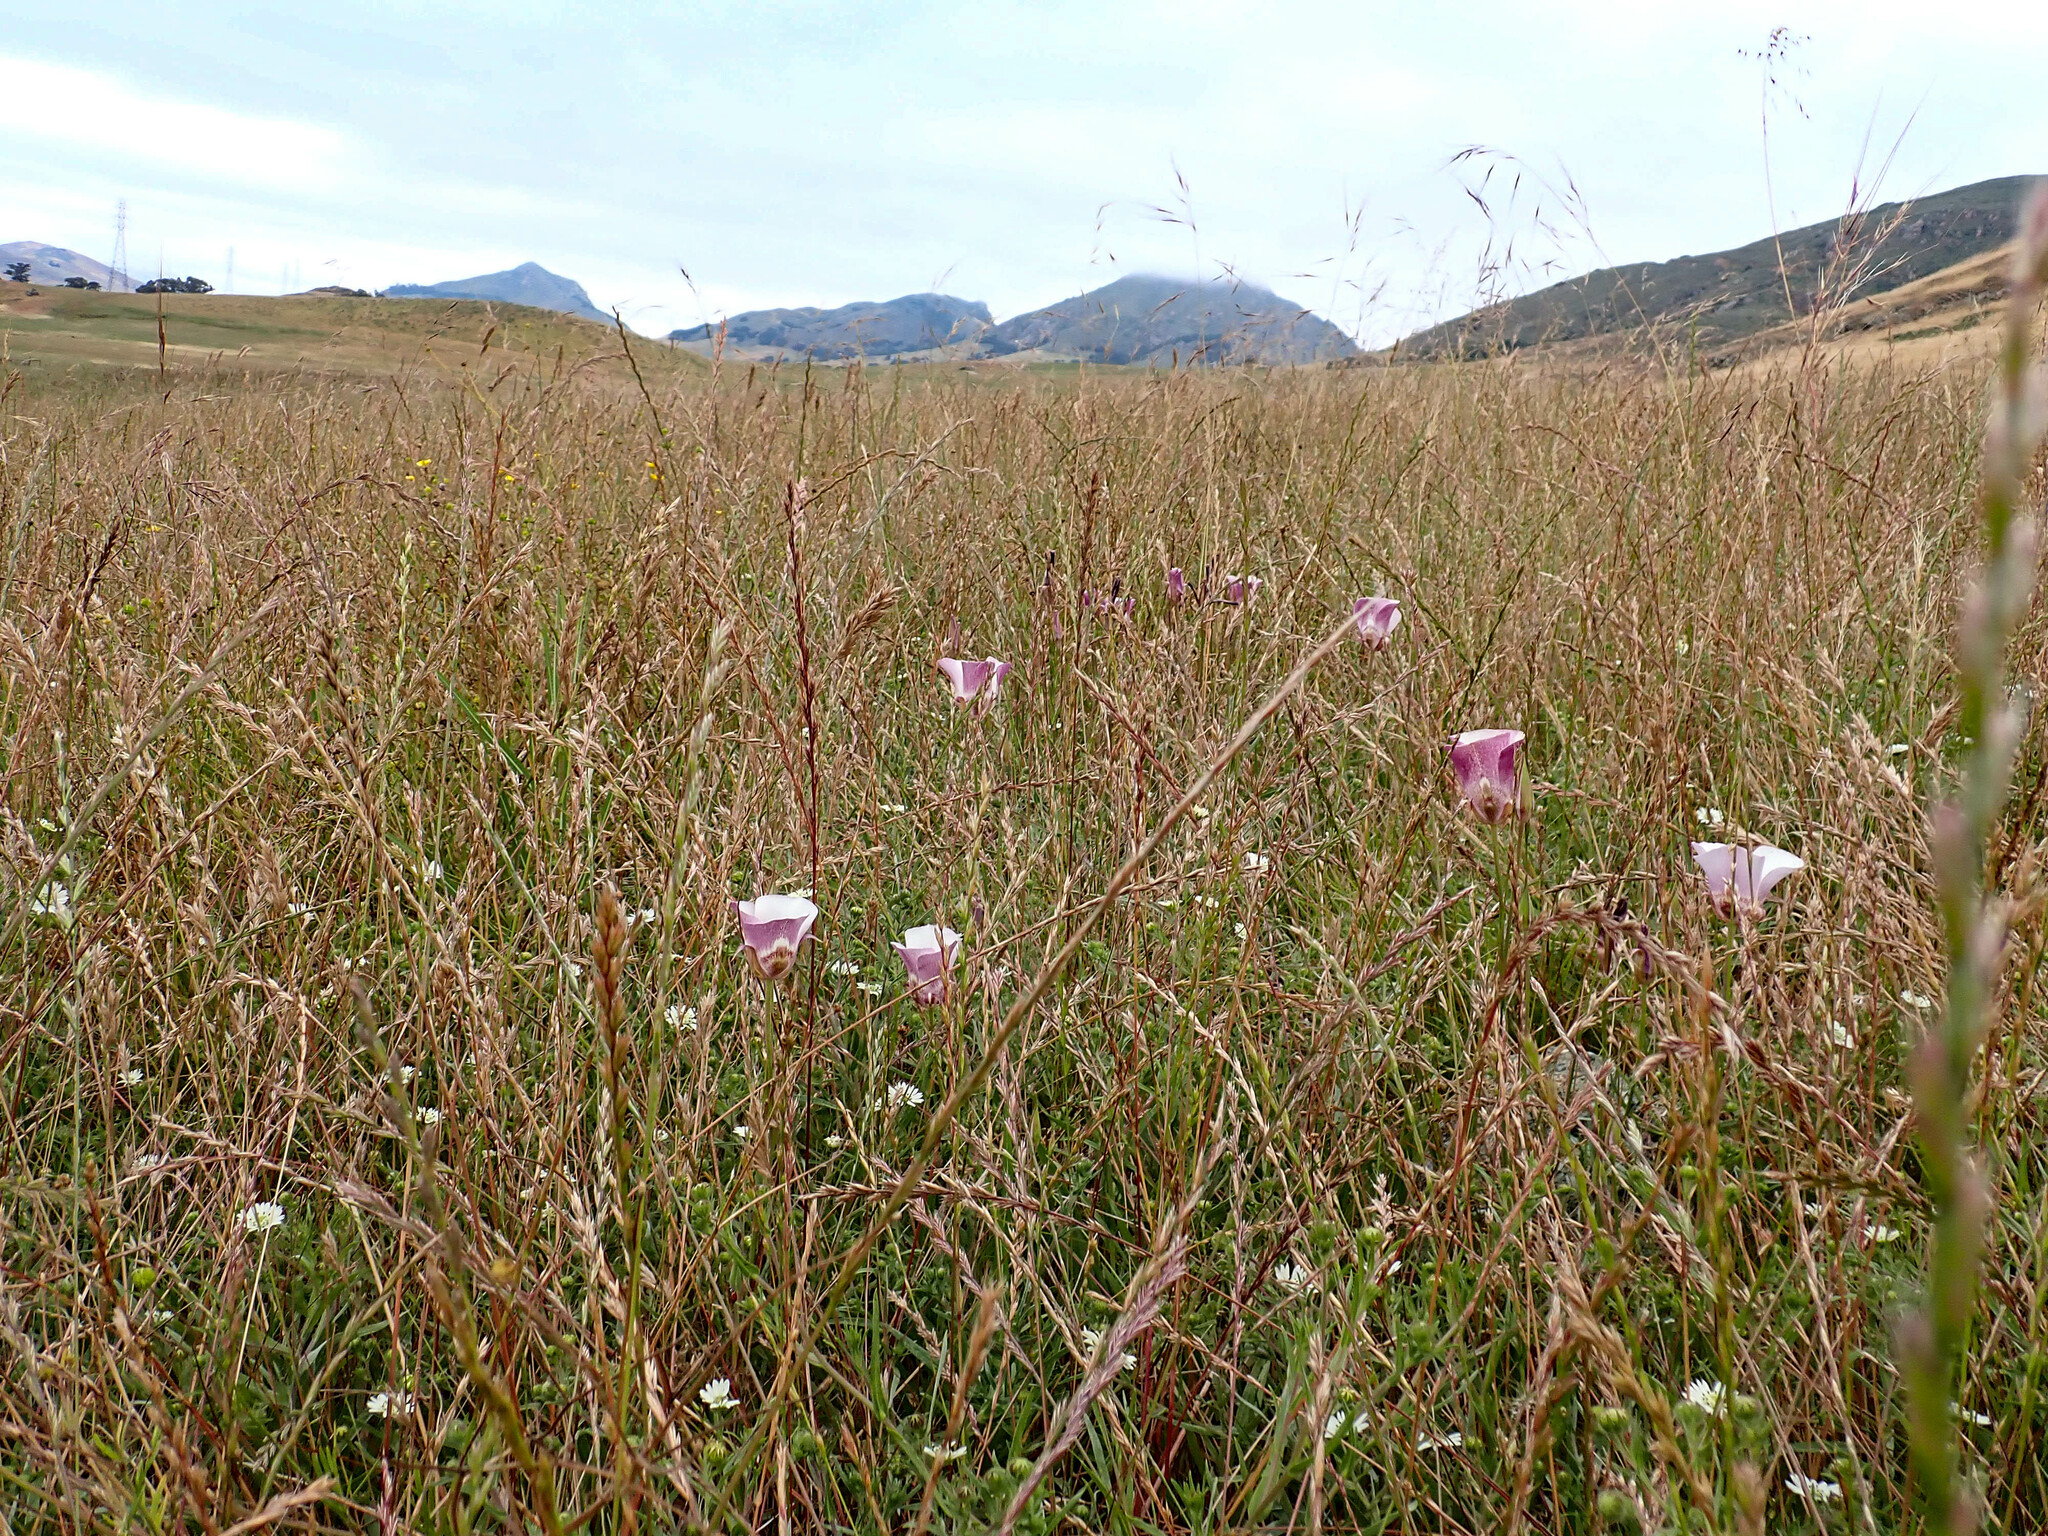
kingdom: Plantae
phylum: Tracheophyta
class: Liliopsida
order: Liliales
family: Liliaceae
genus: Calochortus
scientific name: Calochortus argillosus
